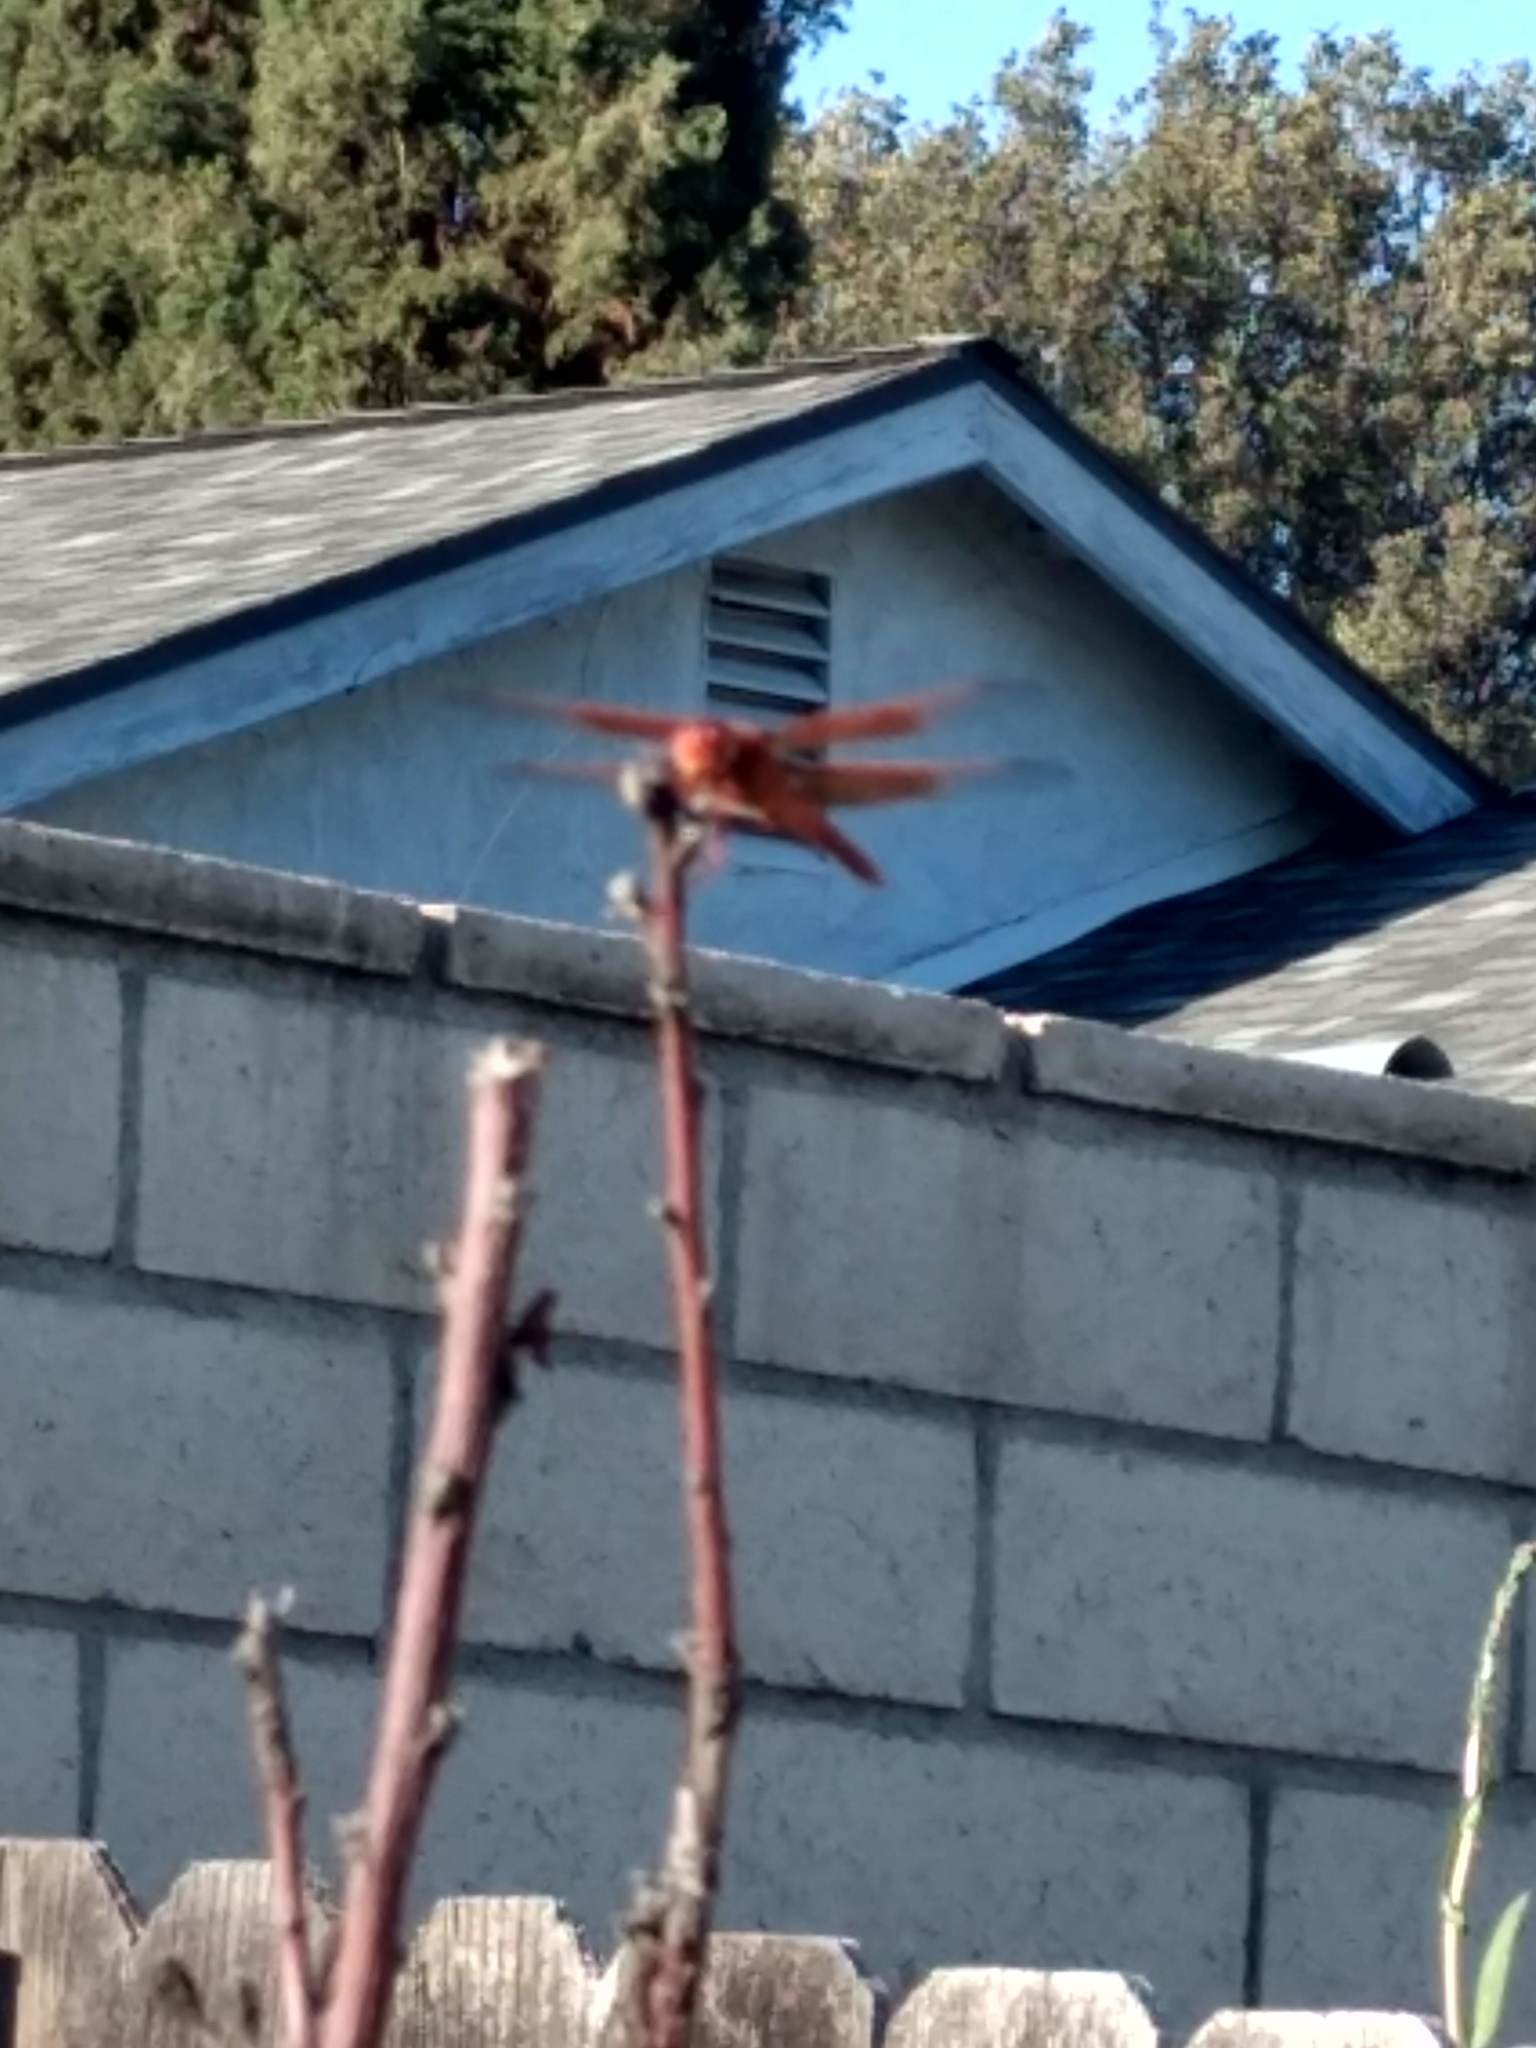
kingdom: Animalia
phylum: Arthropoda
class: Insecta
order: Odonata
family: Libellulidae
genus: Libellula
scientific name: Libellula saturata
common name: Flame skimmer
